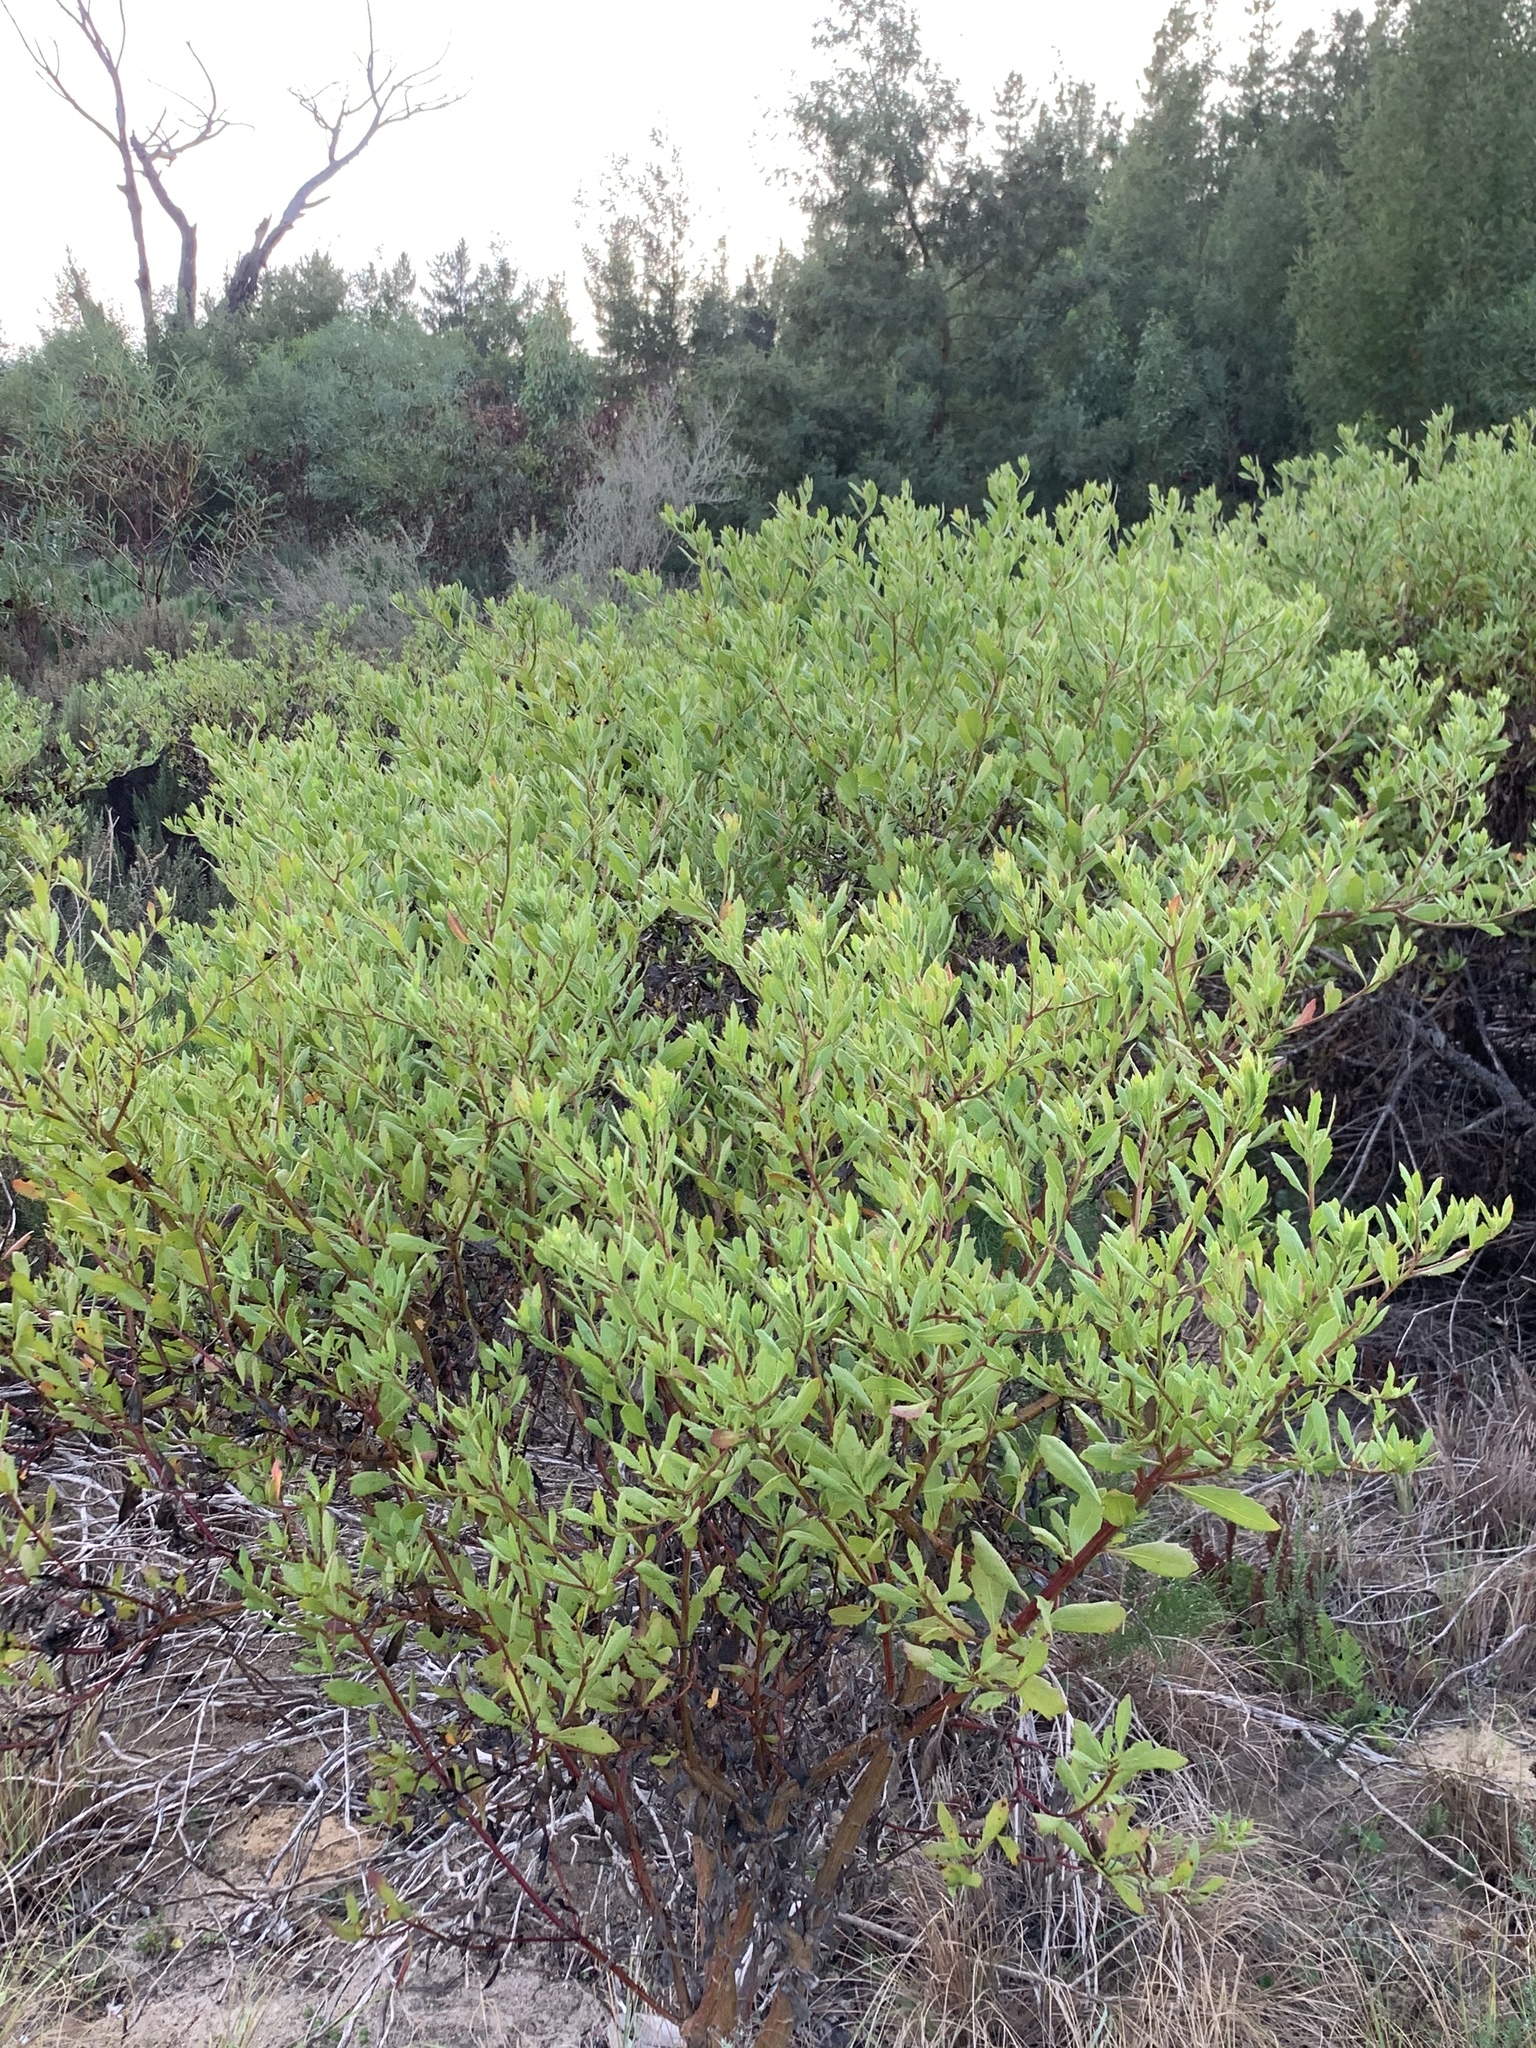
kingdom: Plantae
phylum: Tracheophyta
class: Magnoliopsida
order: Asterales
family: Asteraceae
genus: Osteospermum
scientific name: Osteospermum moniliferum
